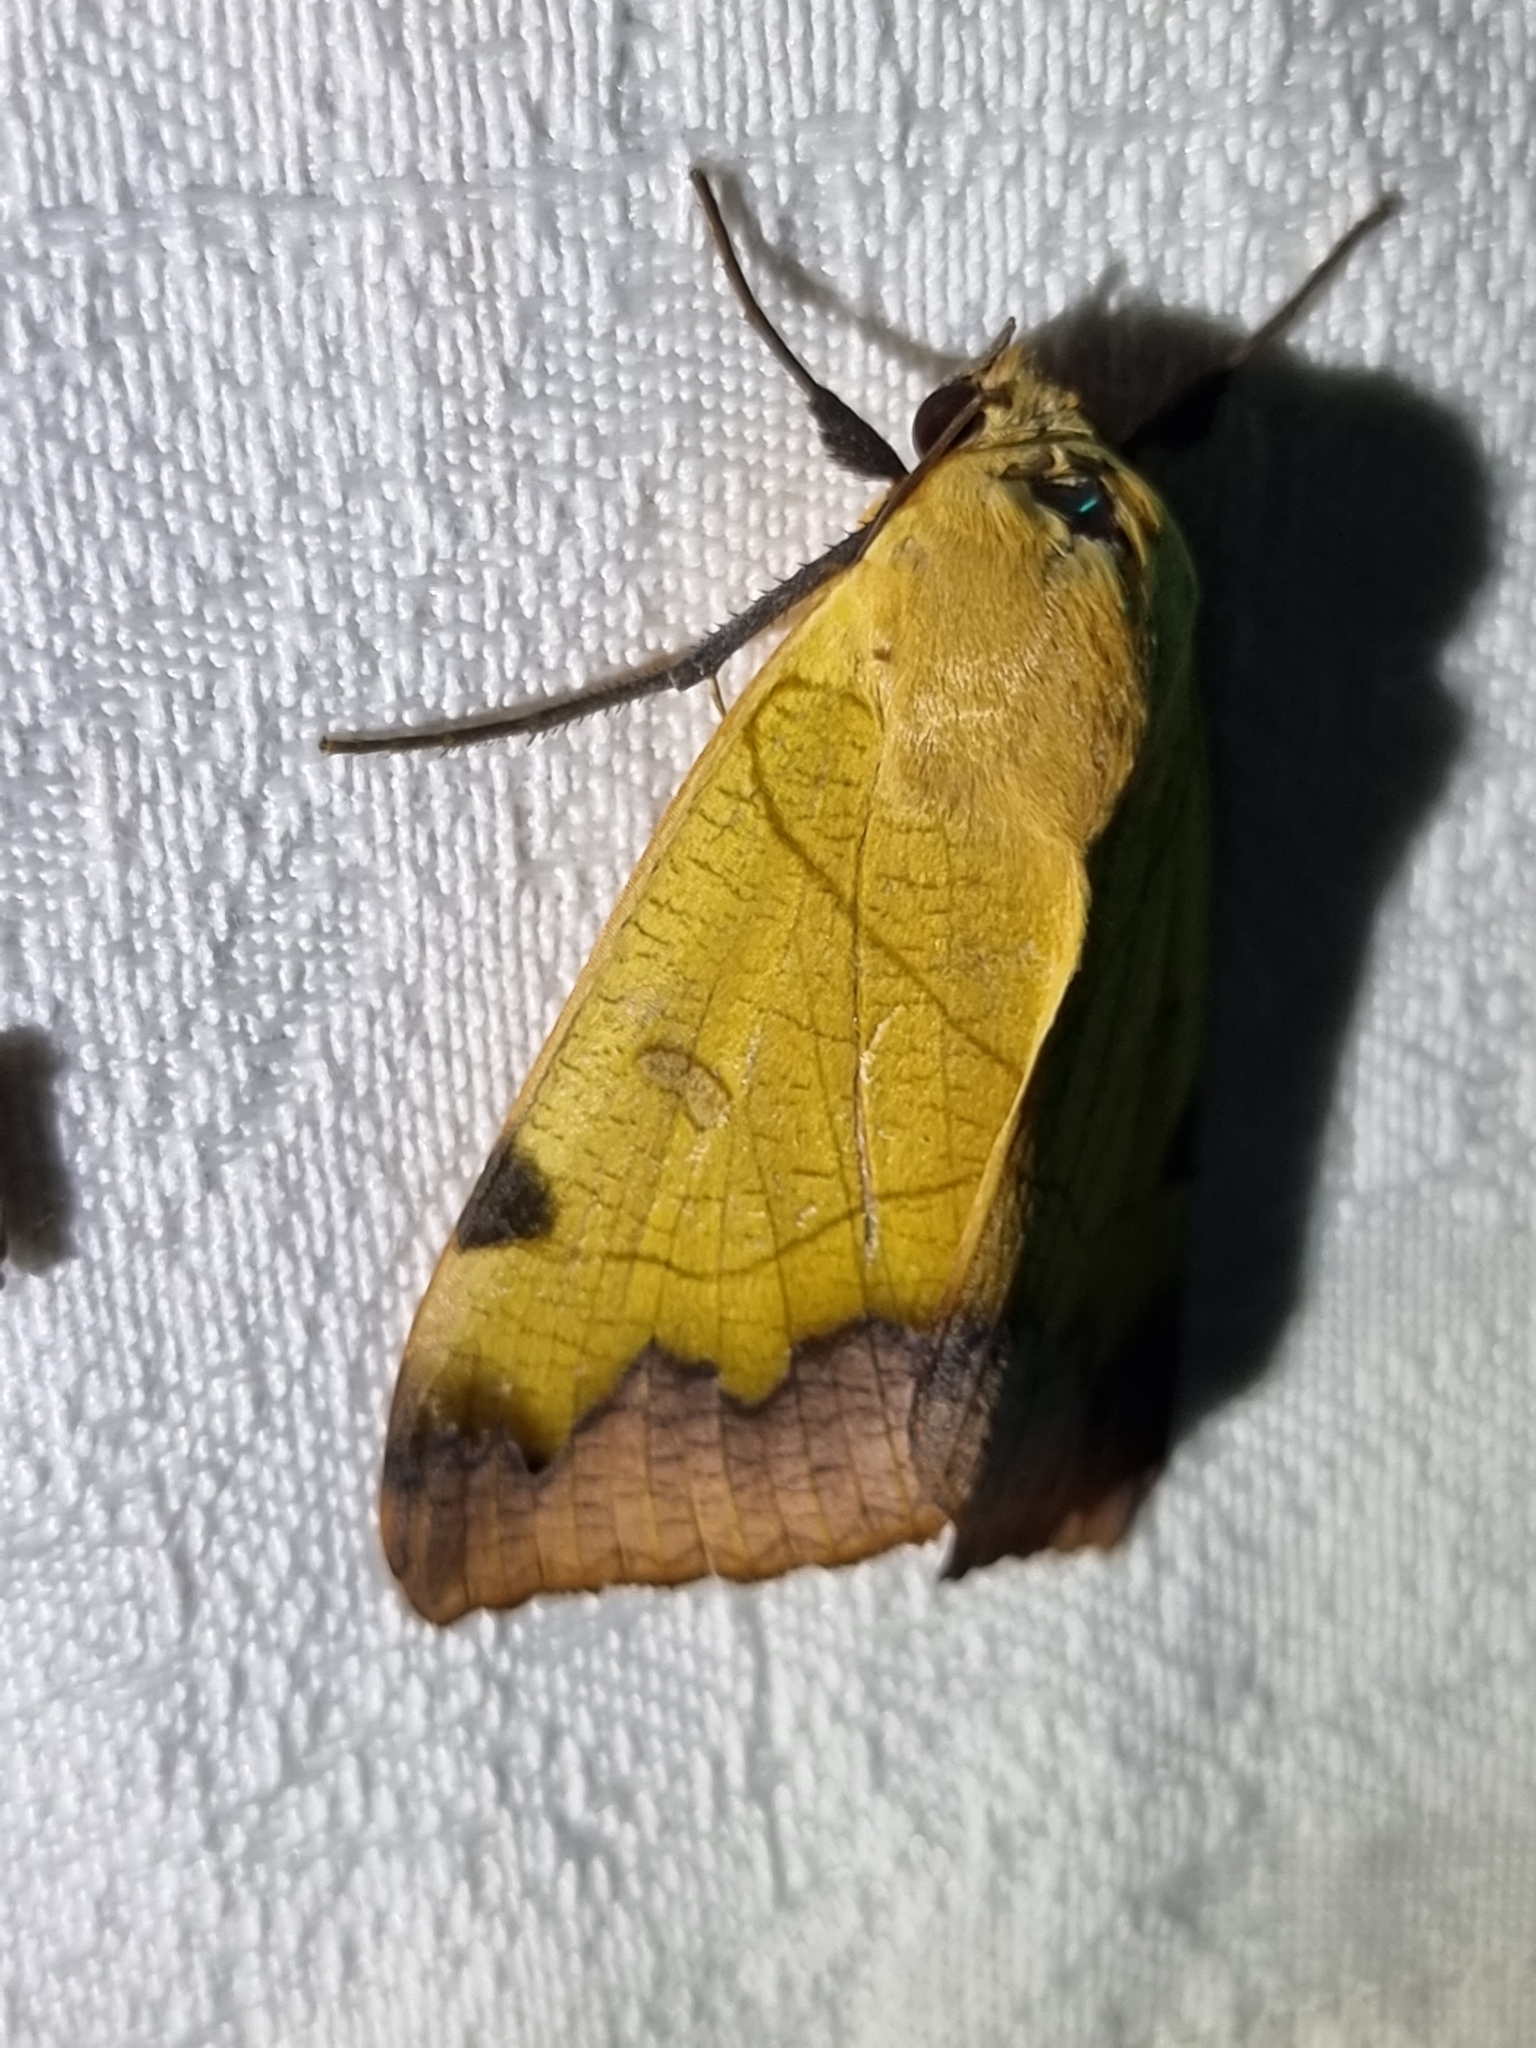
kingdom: Animalia
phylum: Arthropoda
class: Insecta
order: Lepidoptera
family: Erebidae
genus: Ophiusa
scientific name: Ophiusa tirhaca
